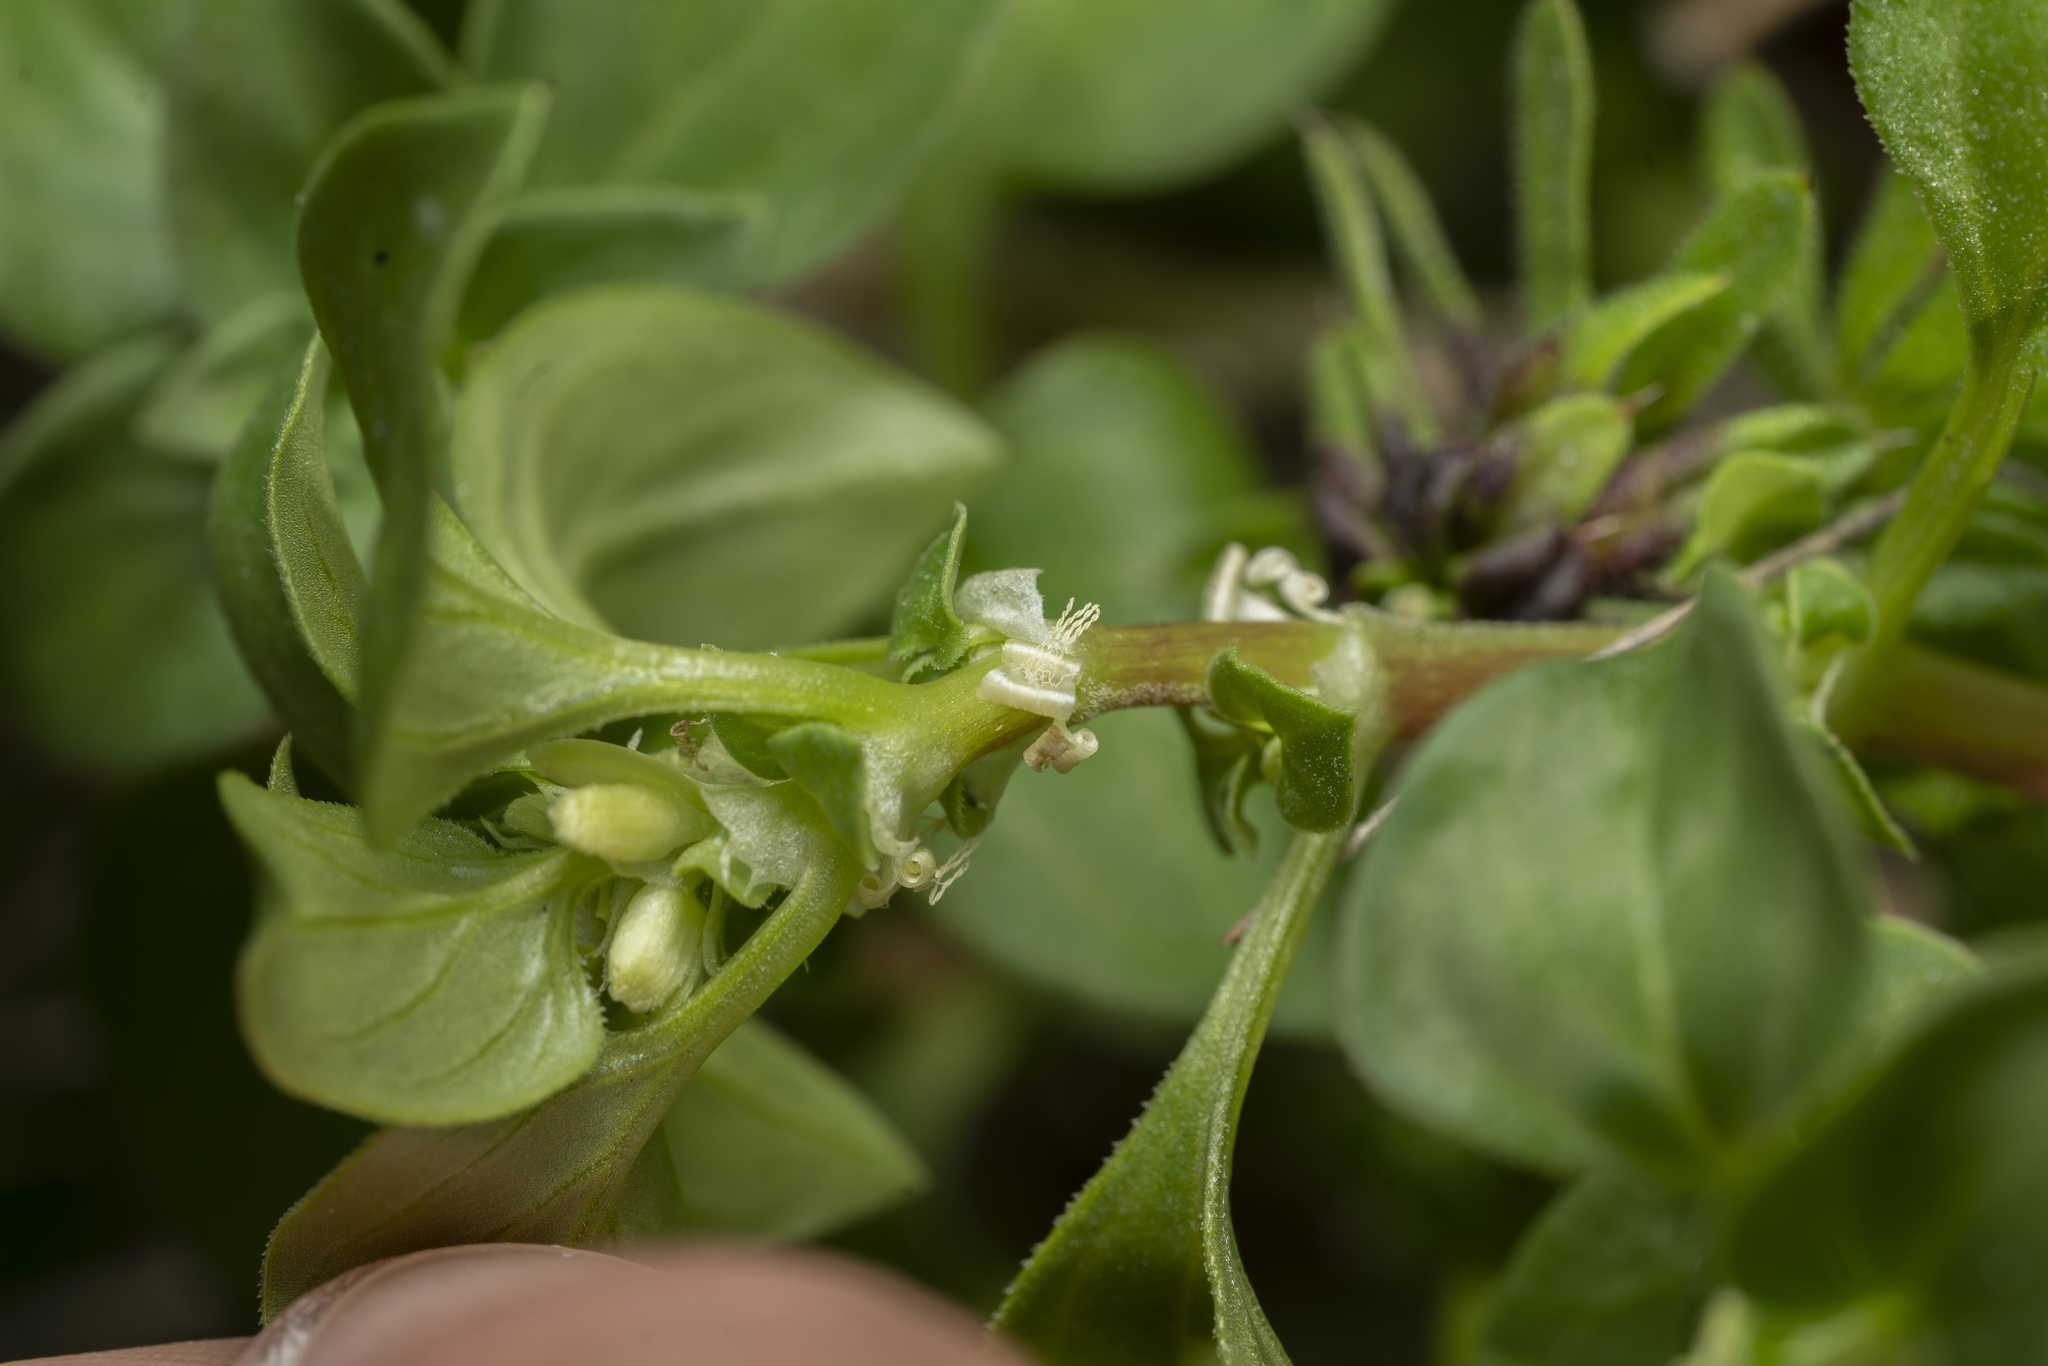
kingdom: Plantae
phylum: Tracheophyta
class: Magnoliopsida
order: Gentianales
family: Rubiaceae
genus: Theligonum
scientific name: Theligonum cynocrambe
